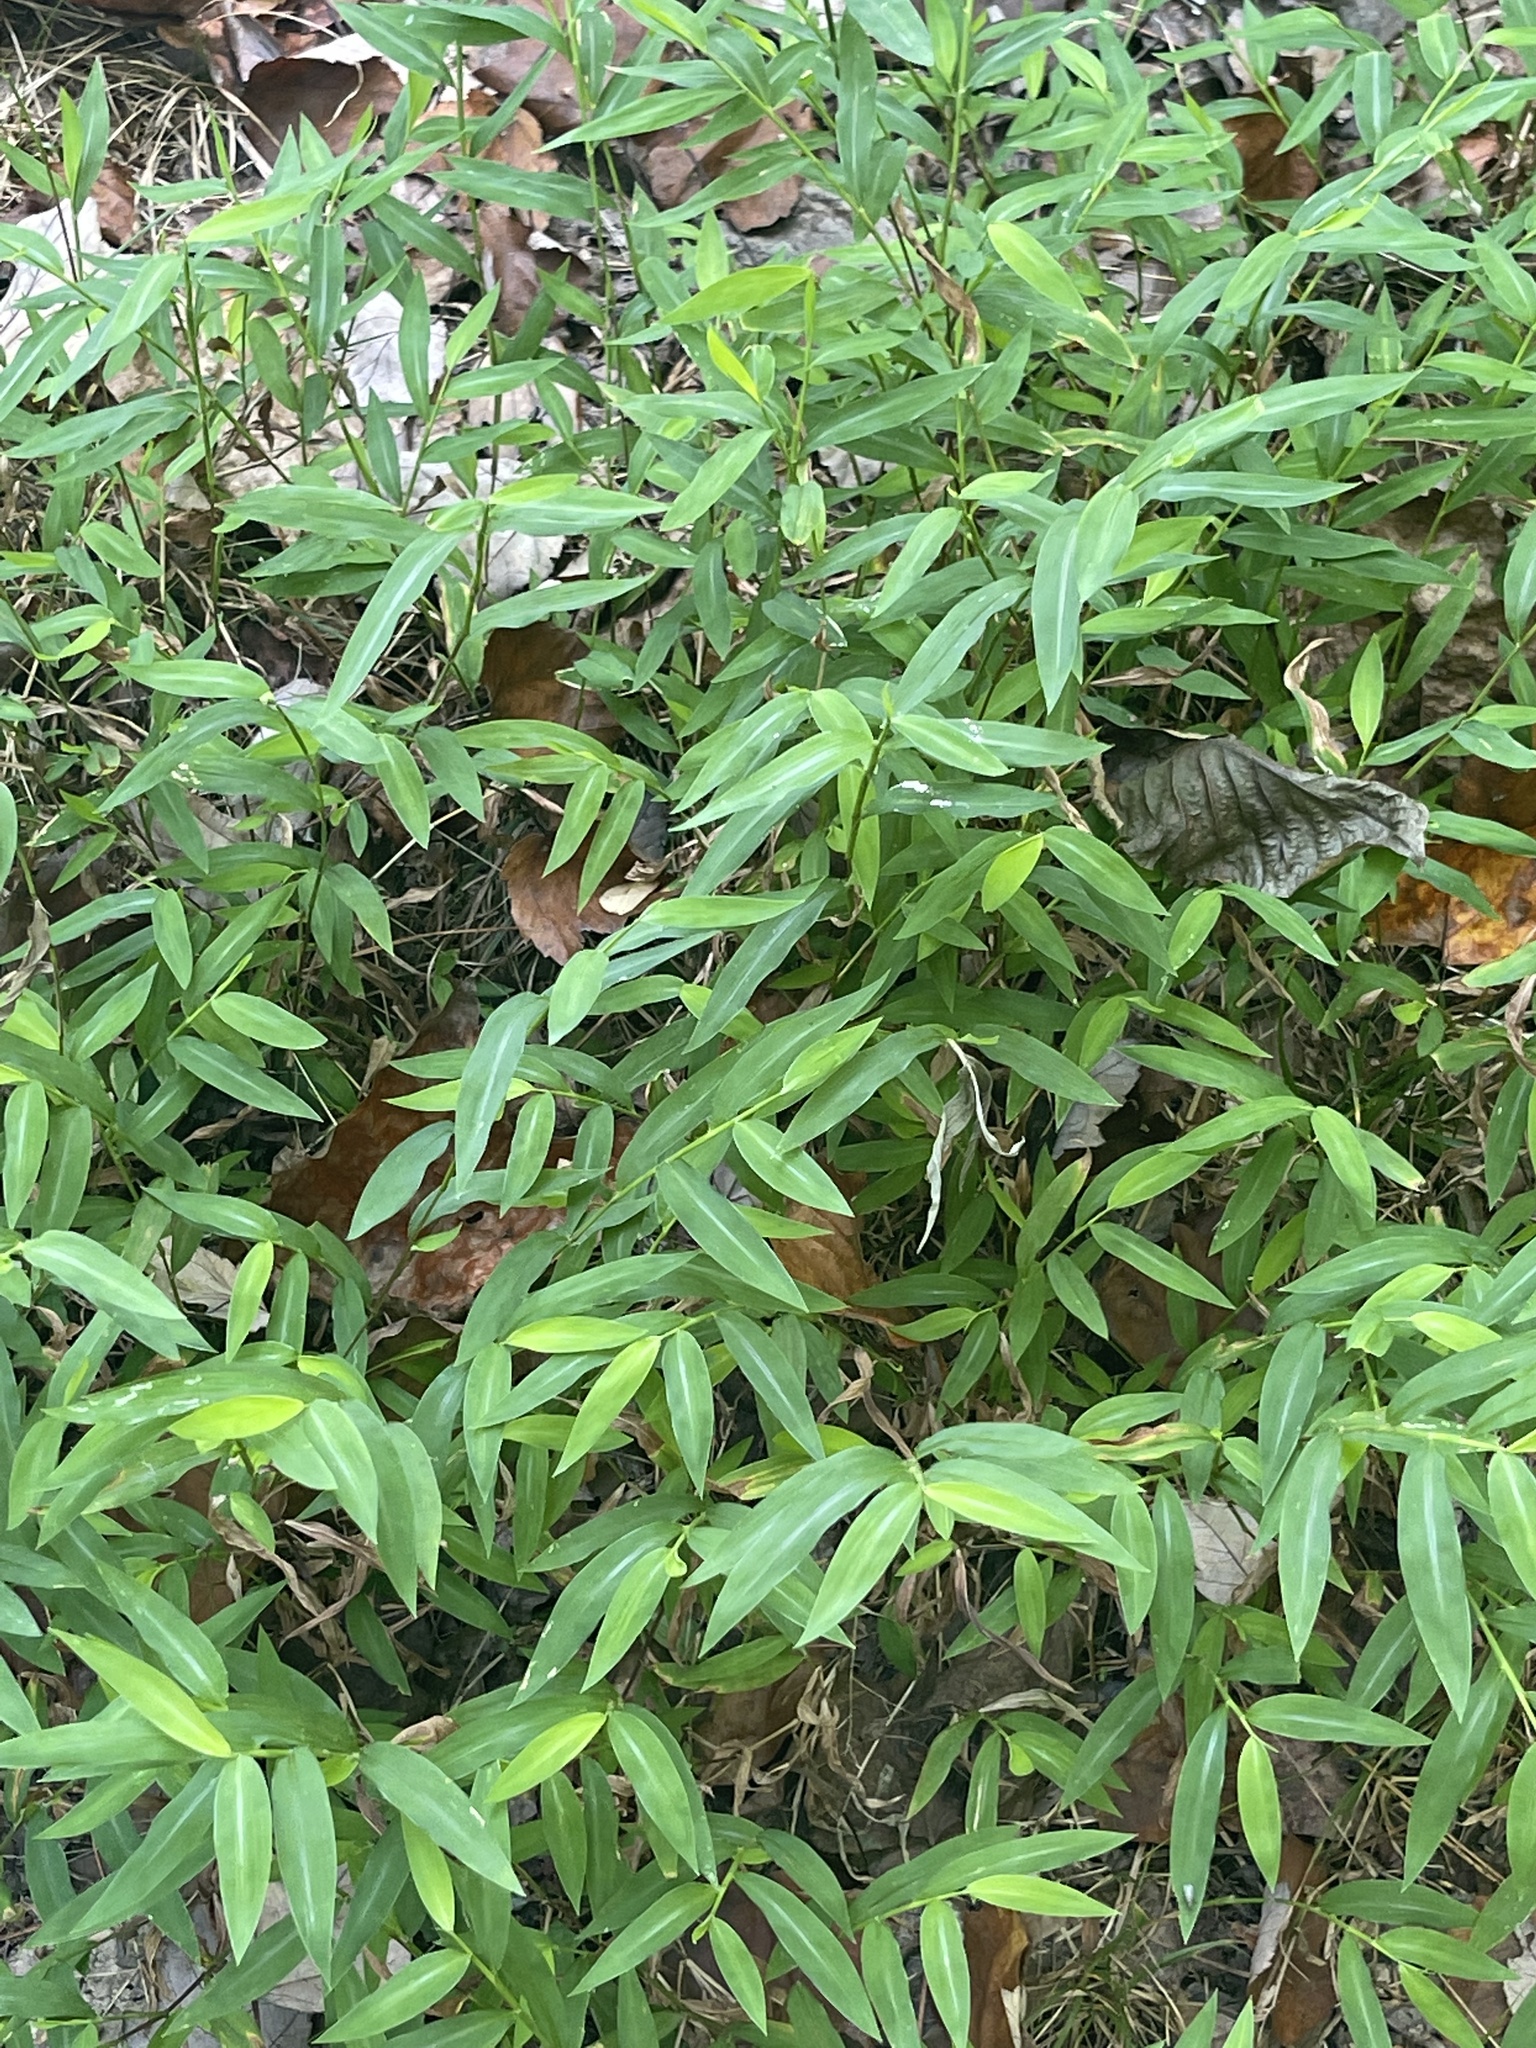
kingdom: Plantae
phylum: Tracheophyta
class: Liliopsida
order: Poales
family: Poaceae
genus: Microstegium
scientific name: Microstegium vimineum
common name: Japanese stiltgrass
